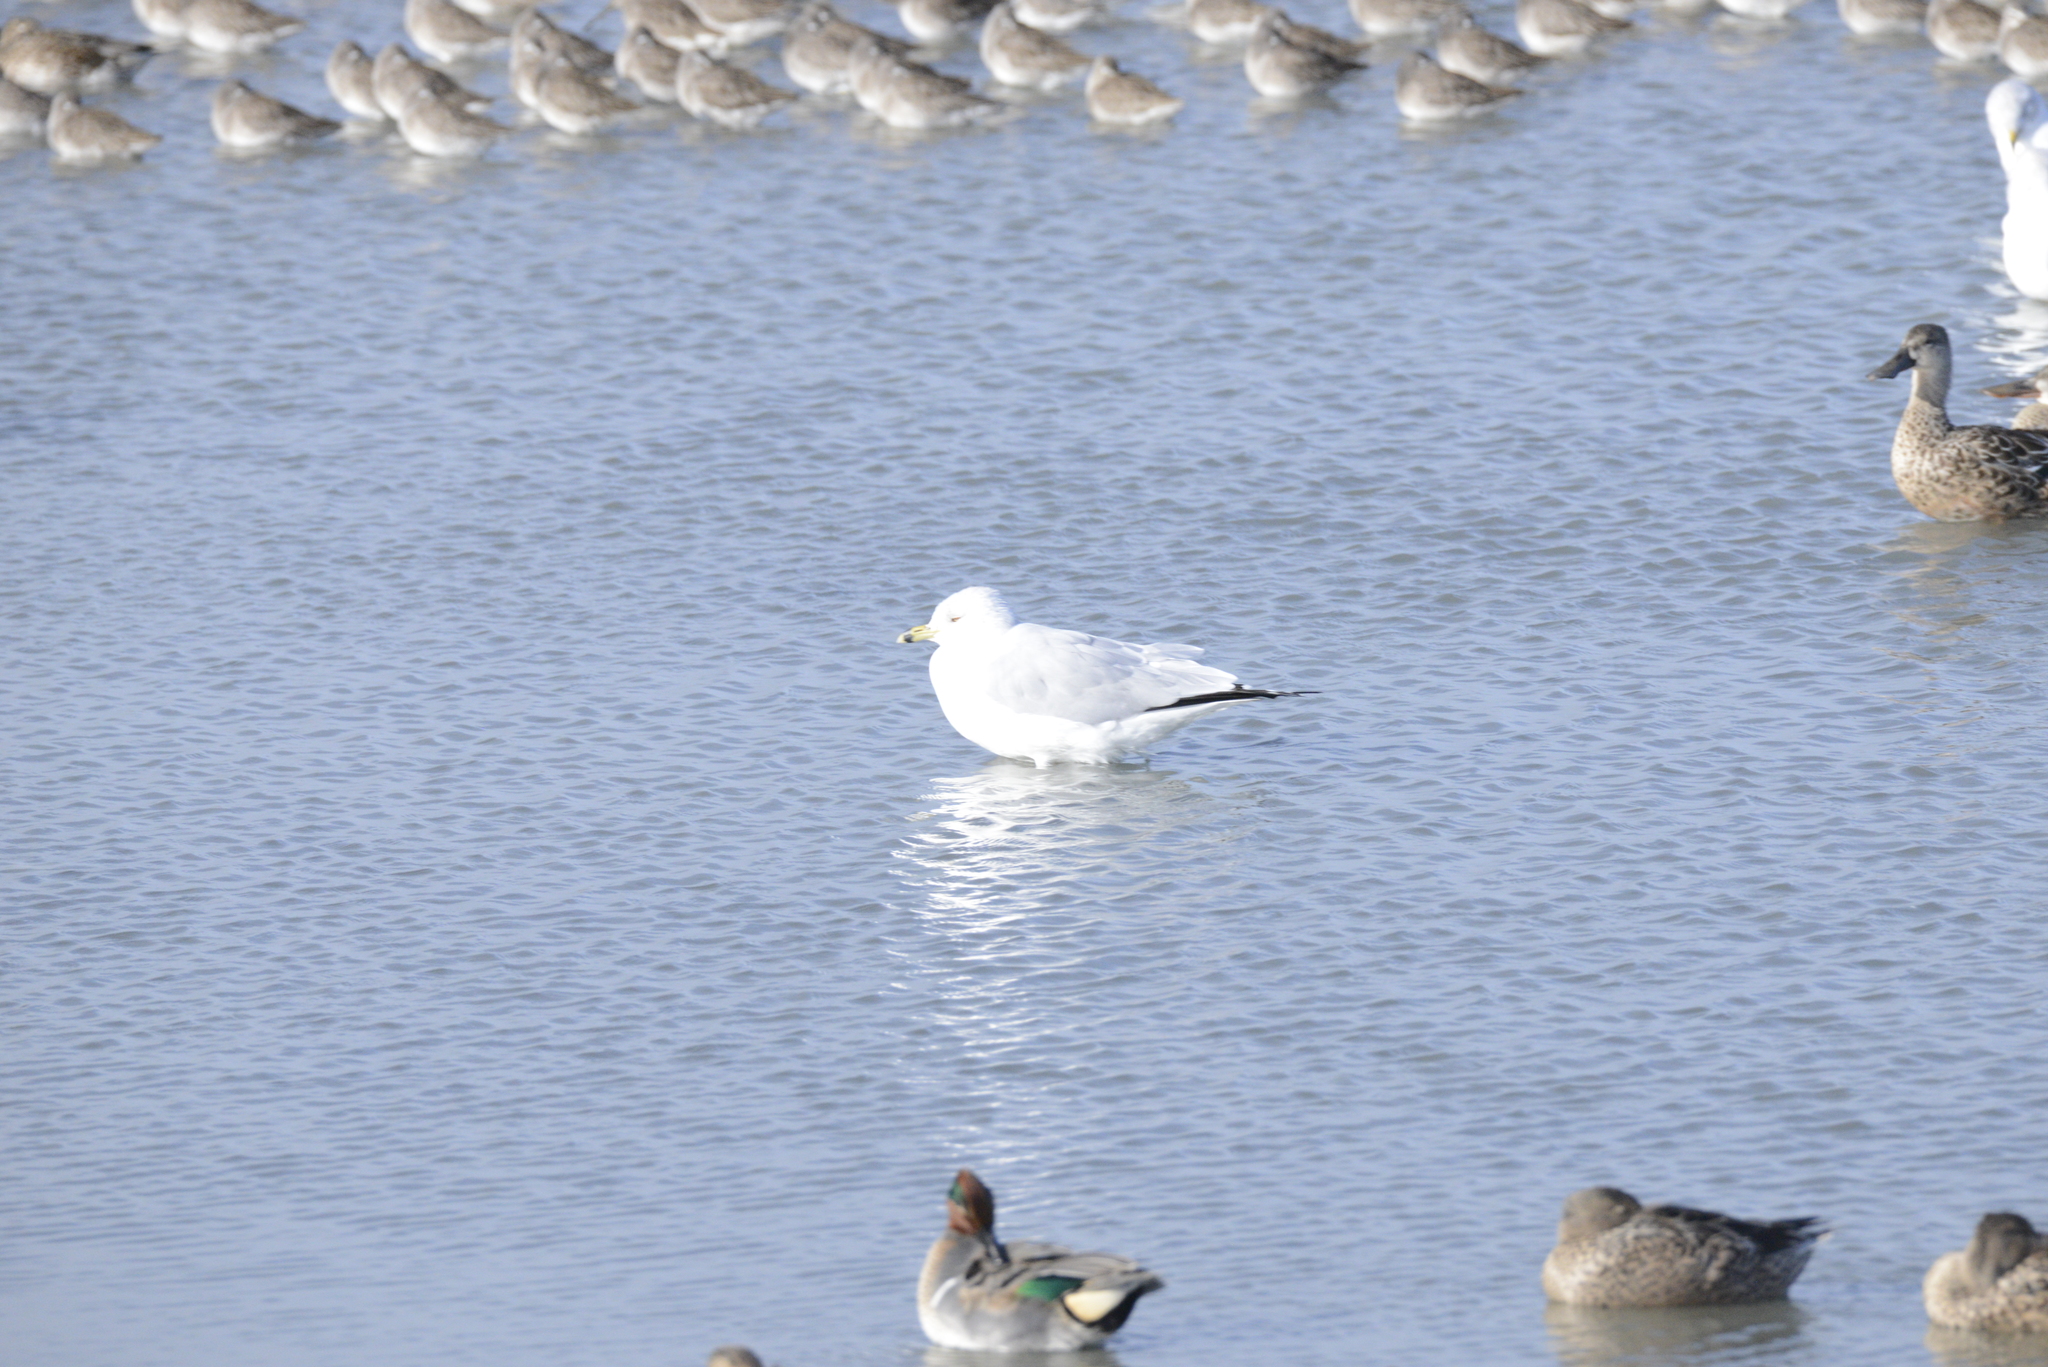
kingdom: Animalia
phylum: Chordata
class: Aves
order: Charadriiformes
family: Laridae
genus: Larus
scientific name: Larus delawarensis
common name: Ring-billed gull
